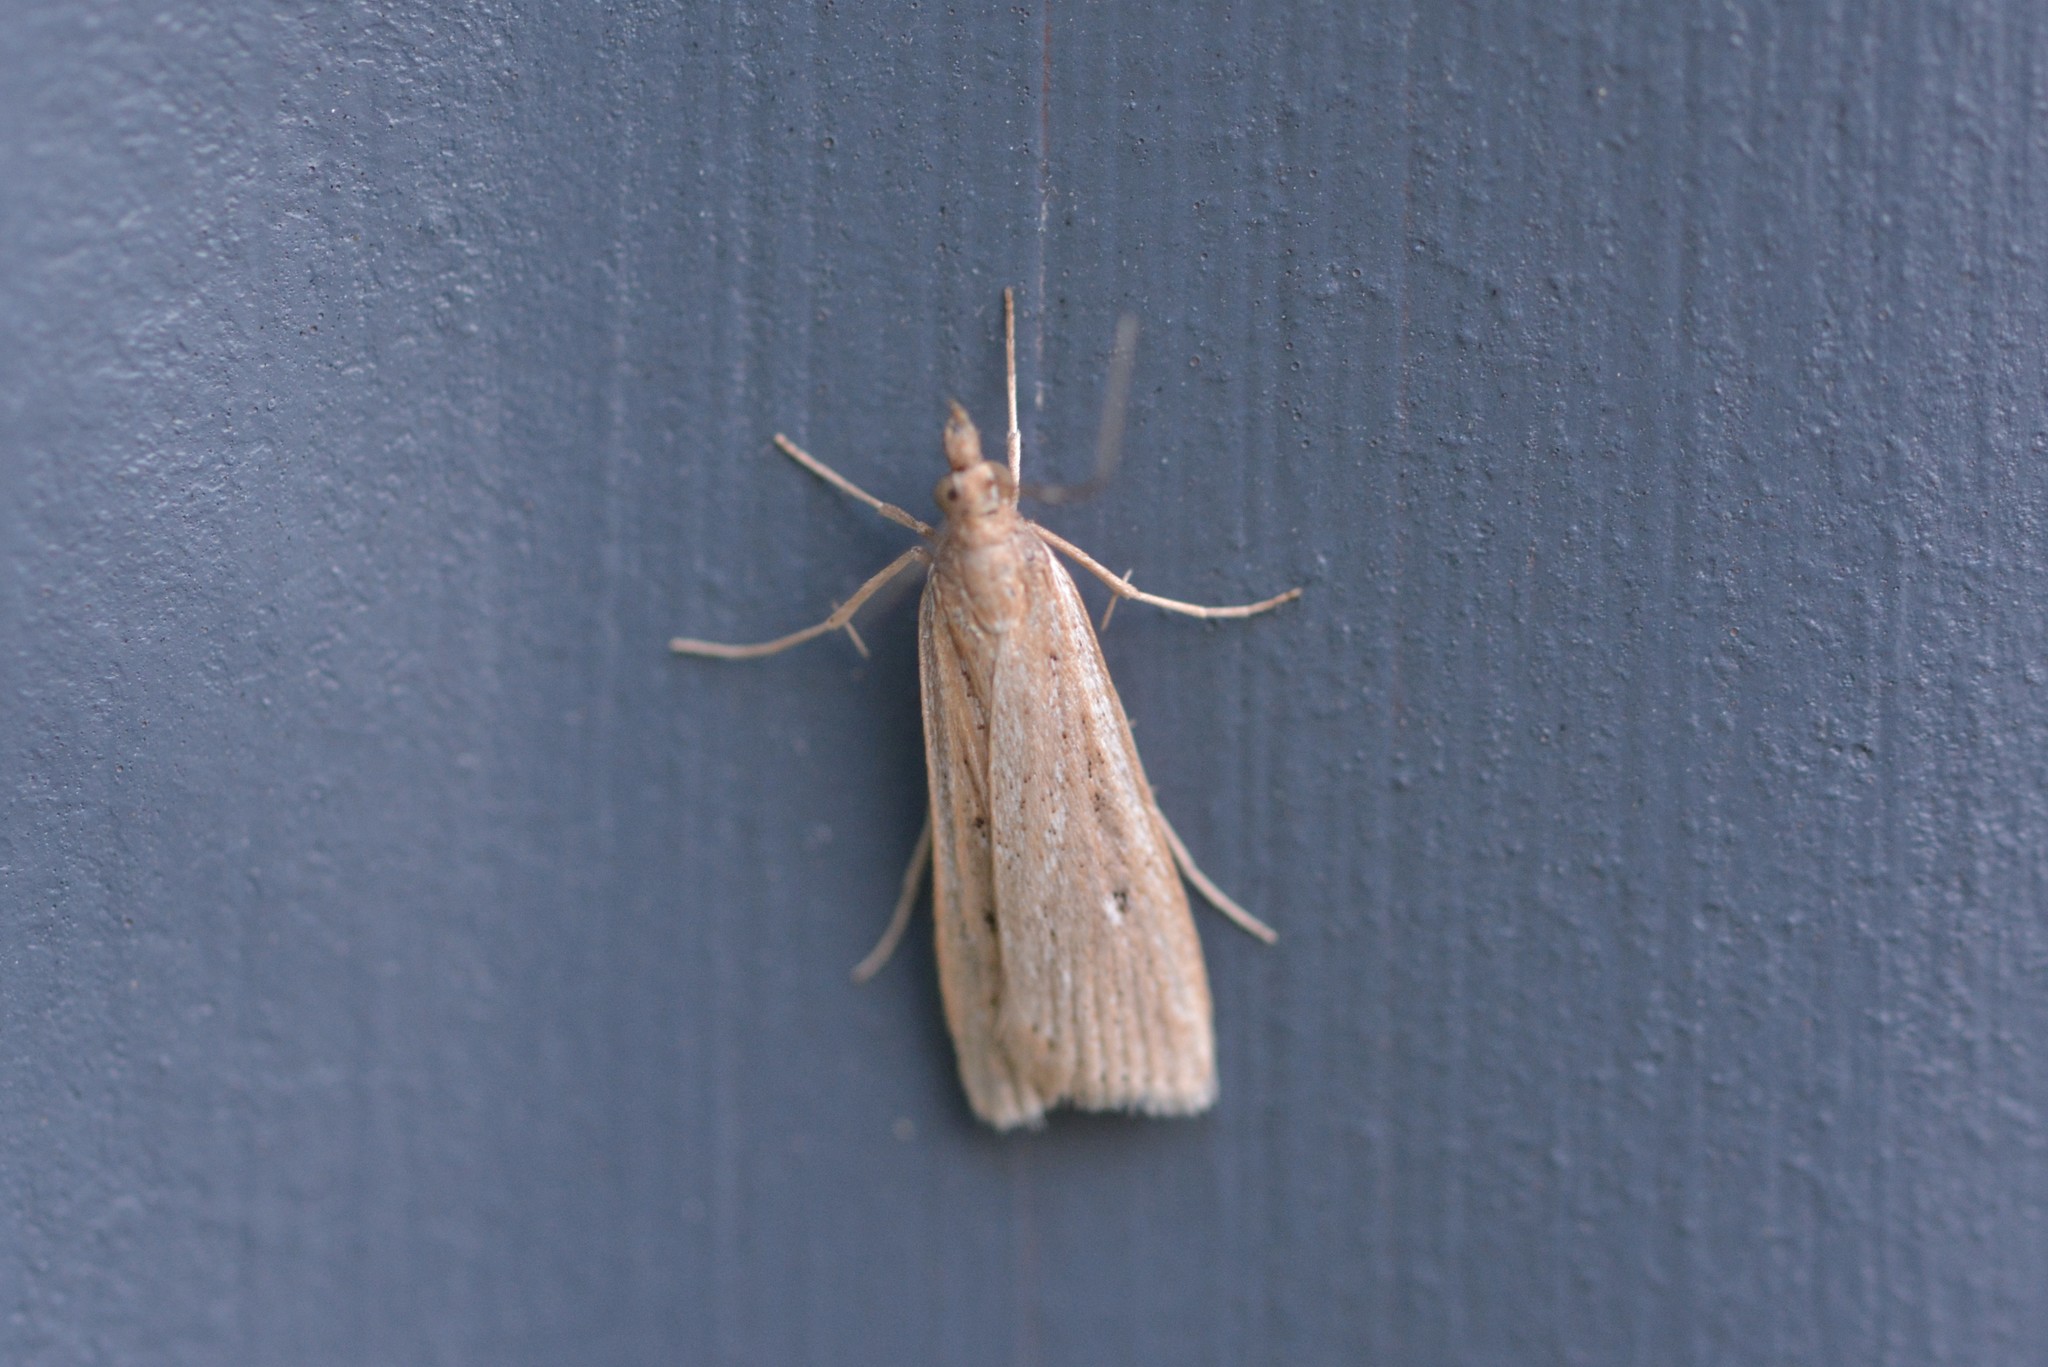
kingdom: Animalia
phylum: Arthropoda
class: Insecta
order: Lepidoptera
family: Crambidae
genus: Eudonia
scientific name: Eudonia sabulosella
